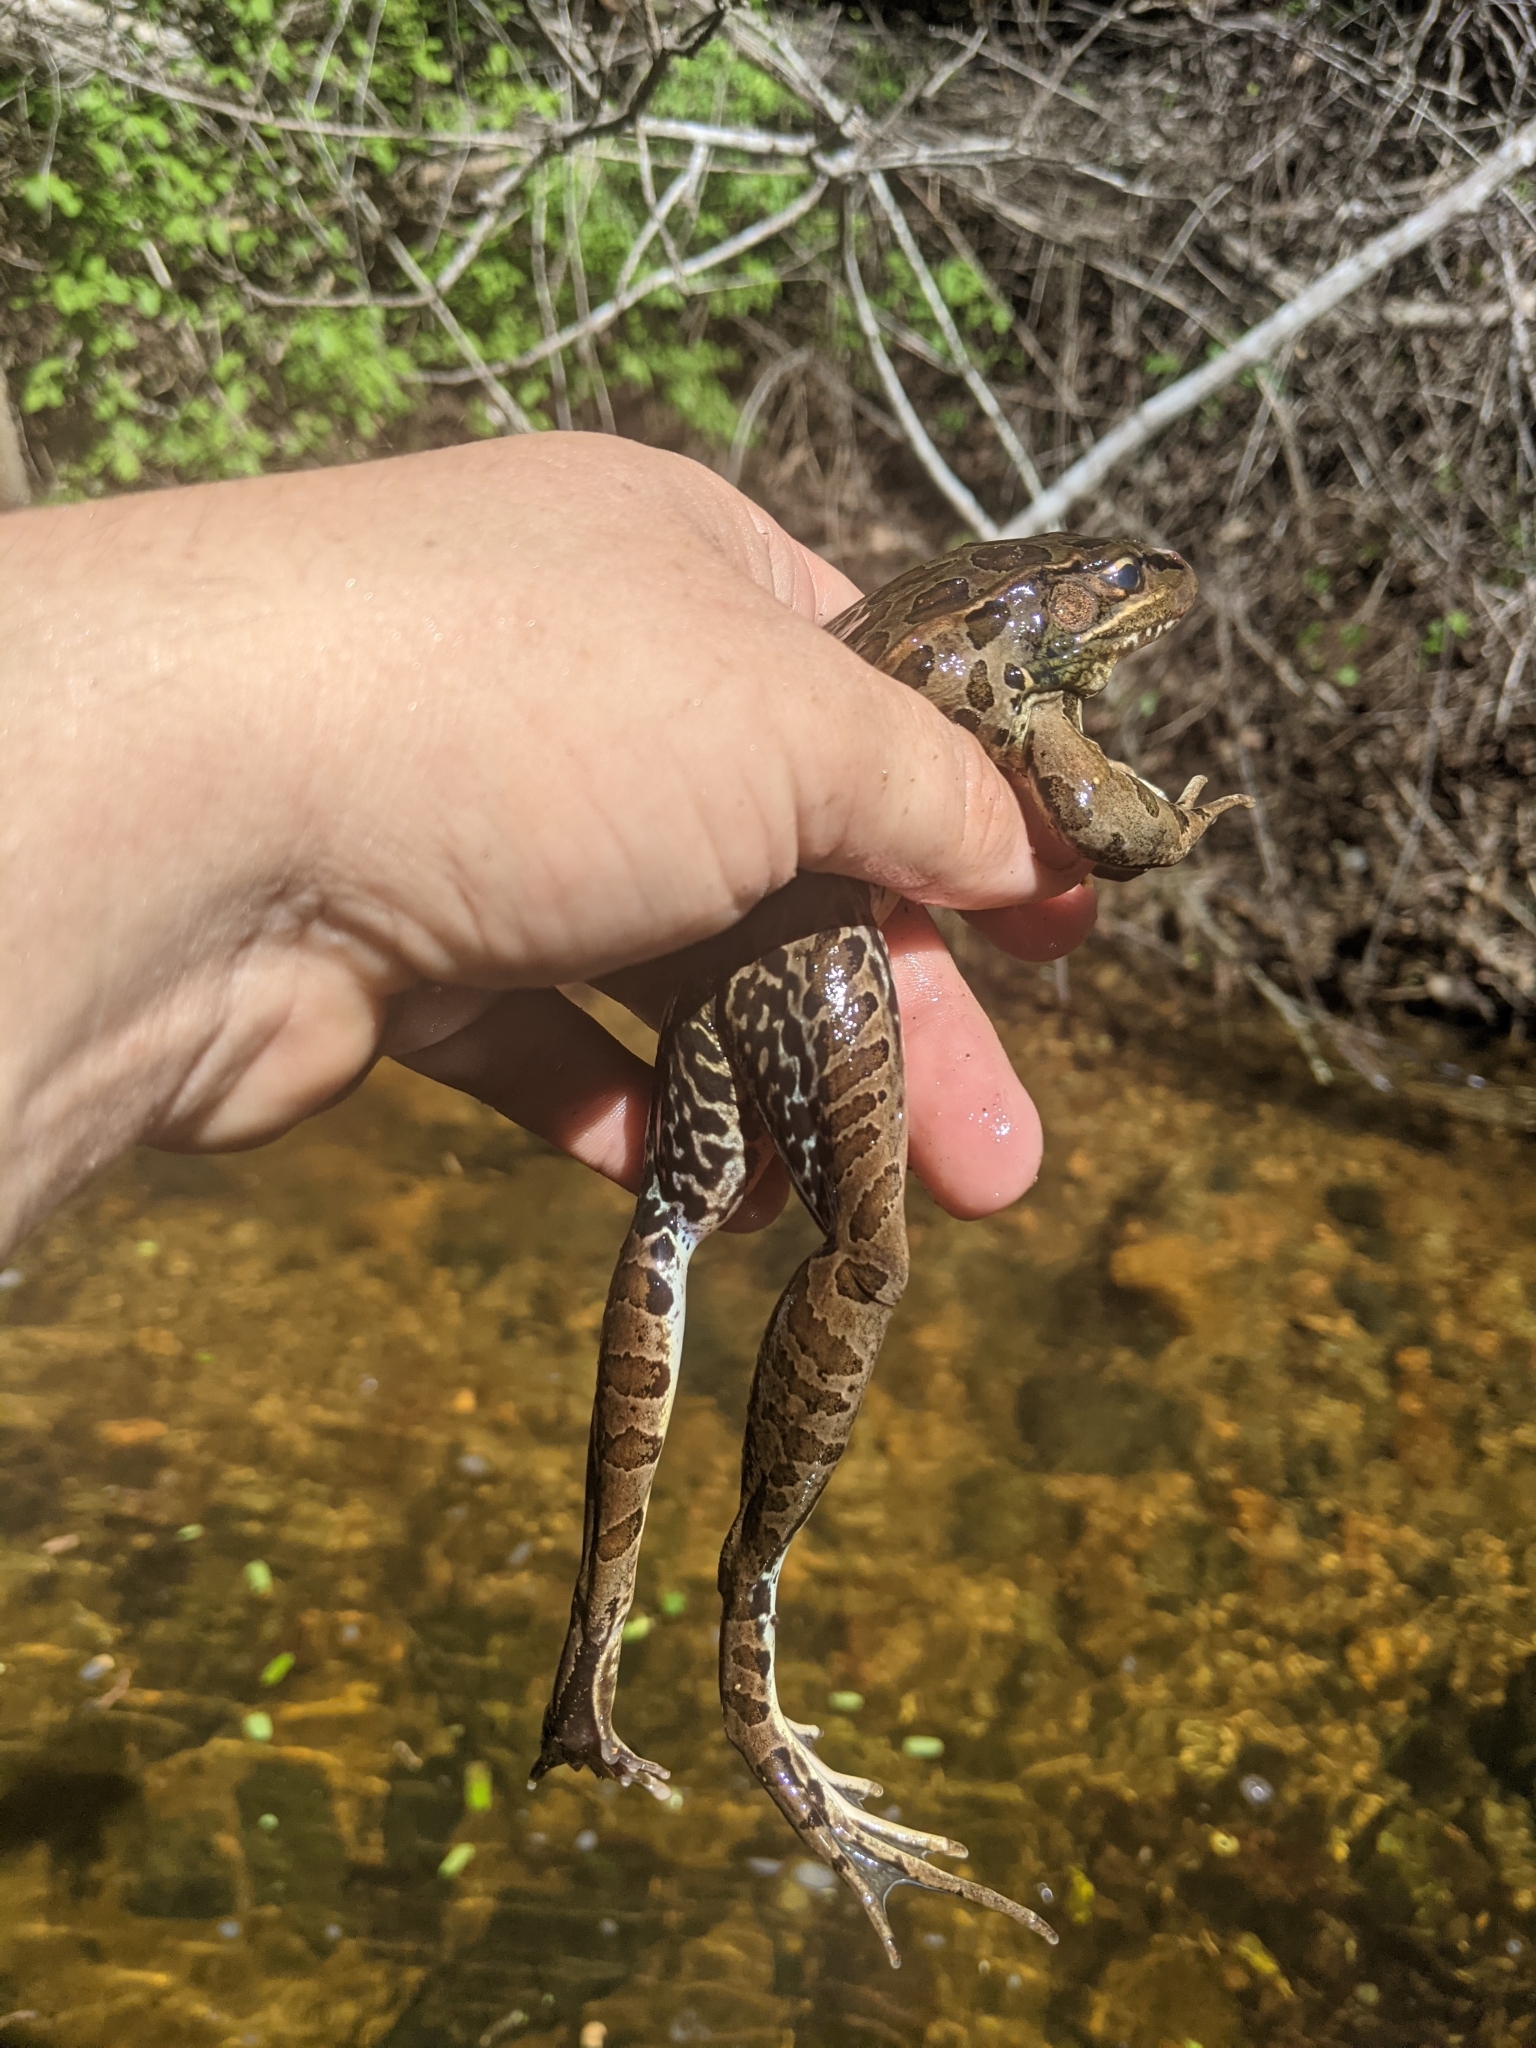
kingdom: Animalia
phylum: Chordata
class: Amphibia
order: Anura
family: Ranidae
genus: Lithobates
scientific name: Lithobates forreri
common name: Forrer's grass frog
